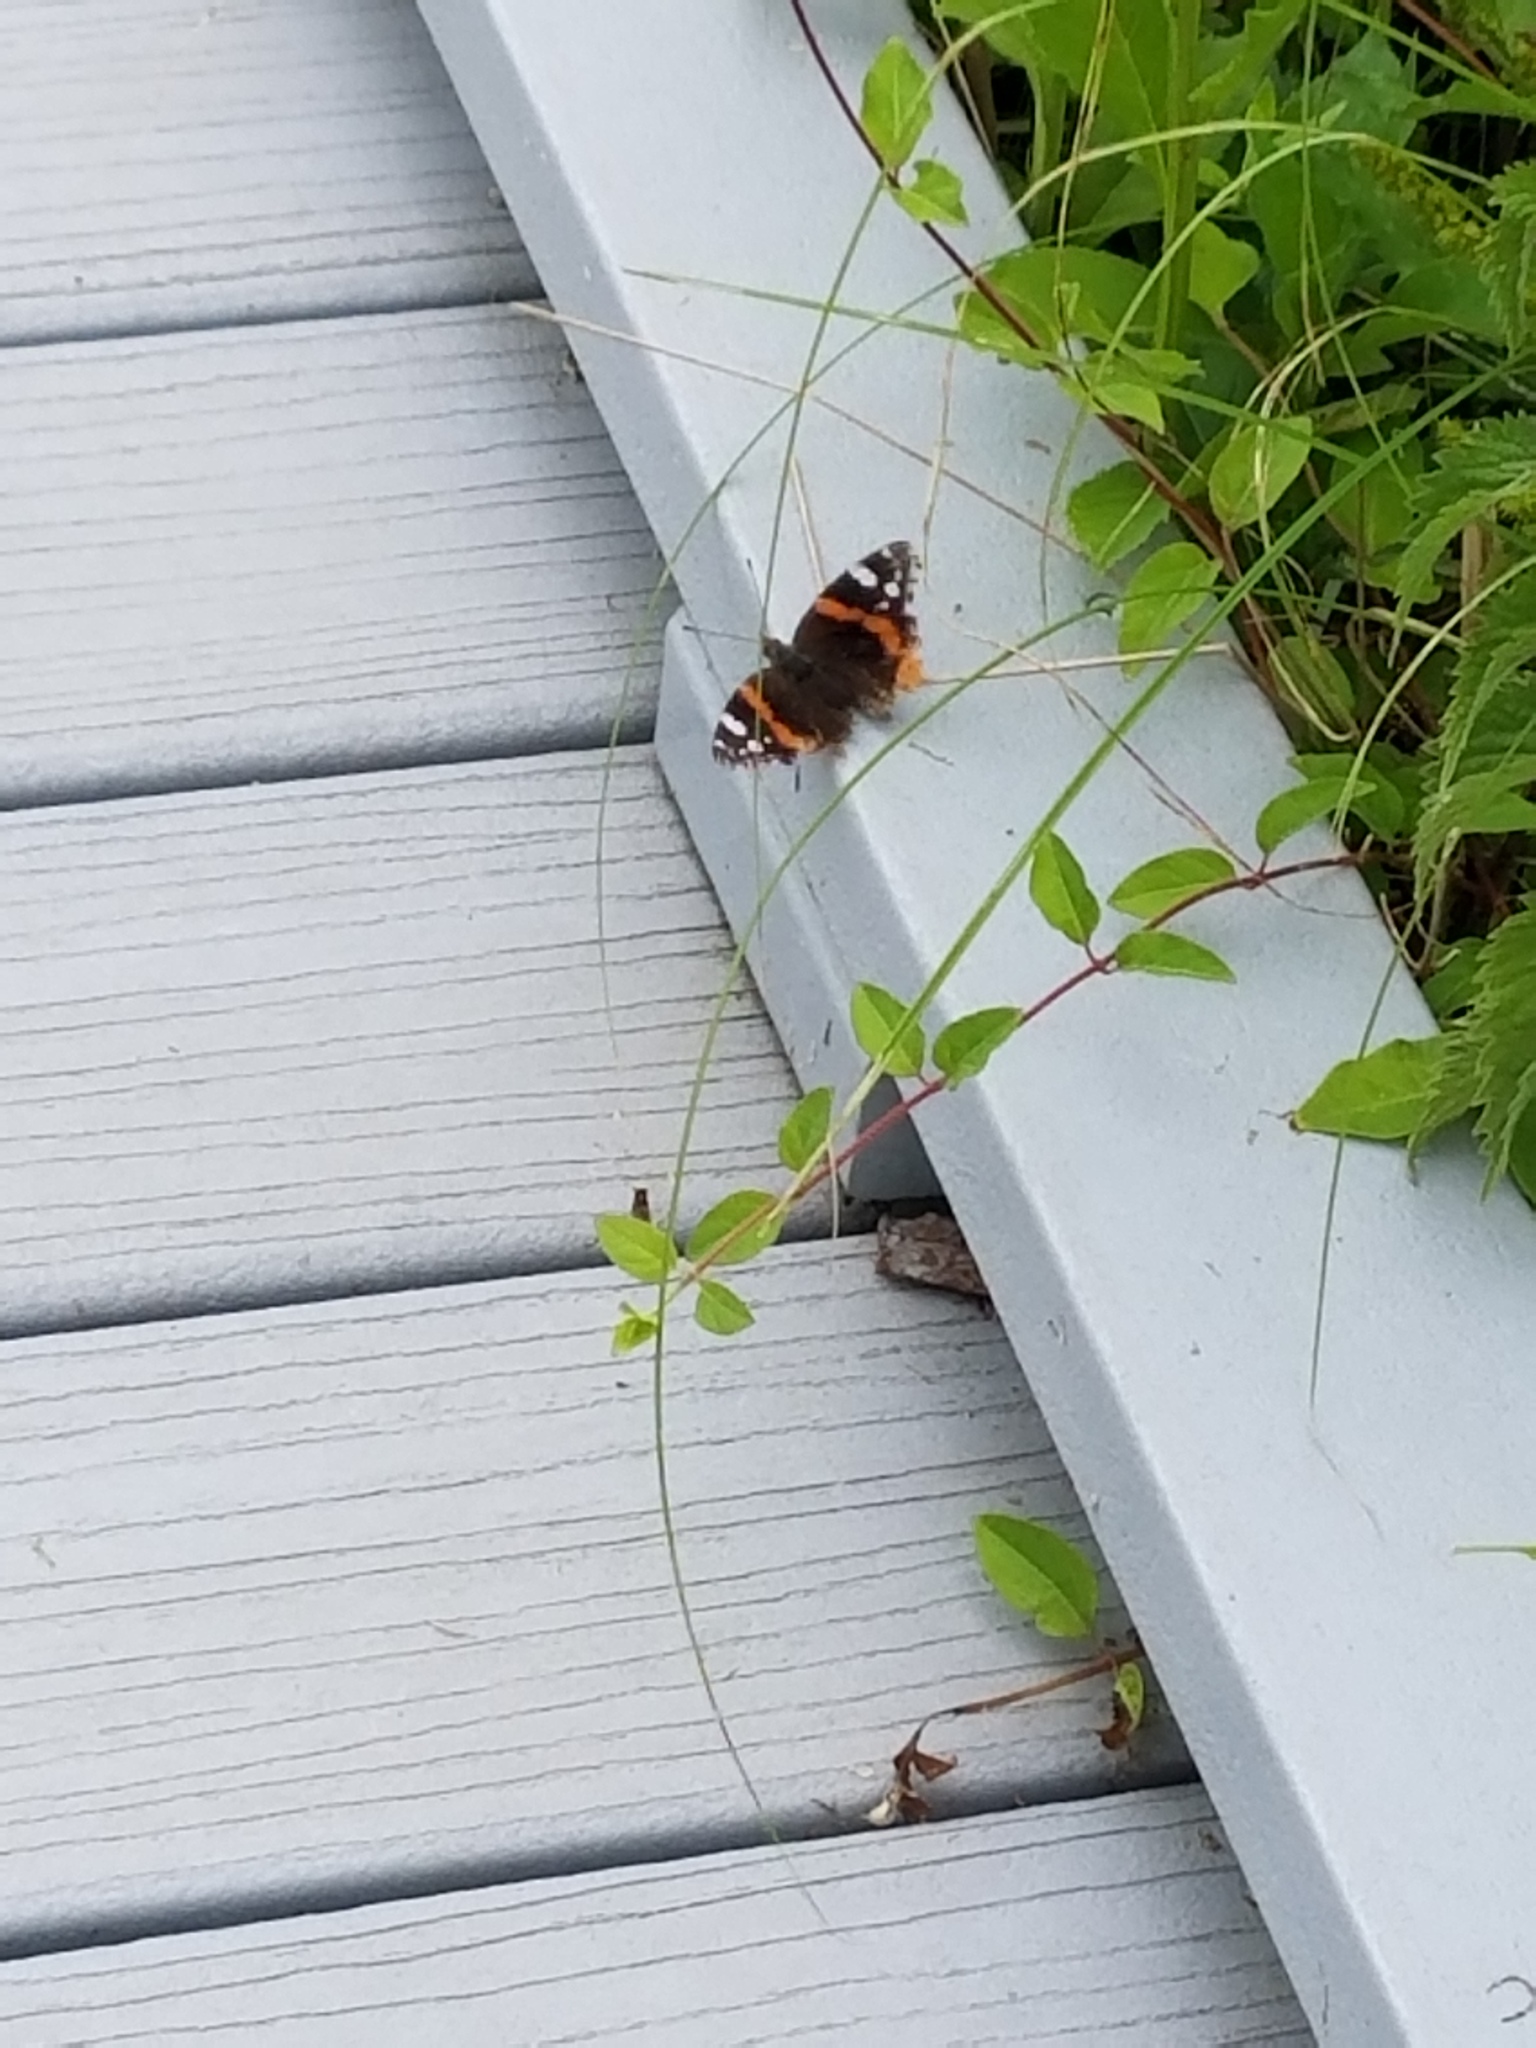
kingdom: Animalia
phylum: Arthropoda
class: Insecta
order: Lepidoptera
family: Nymphalidae
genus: Vanessa
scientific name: Vanessa atalanta
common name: Red admiral
